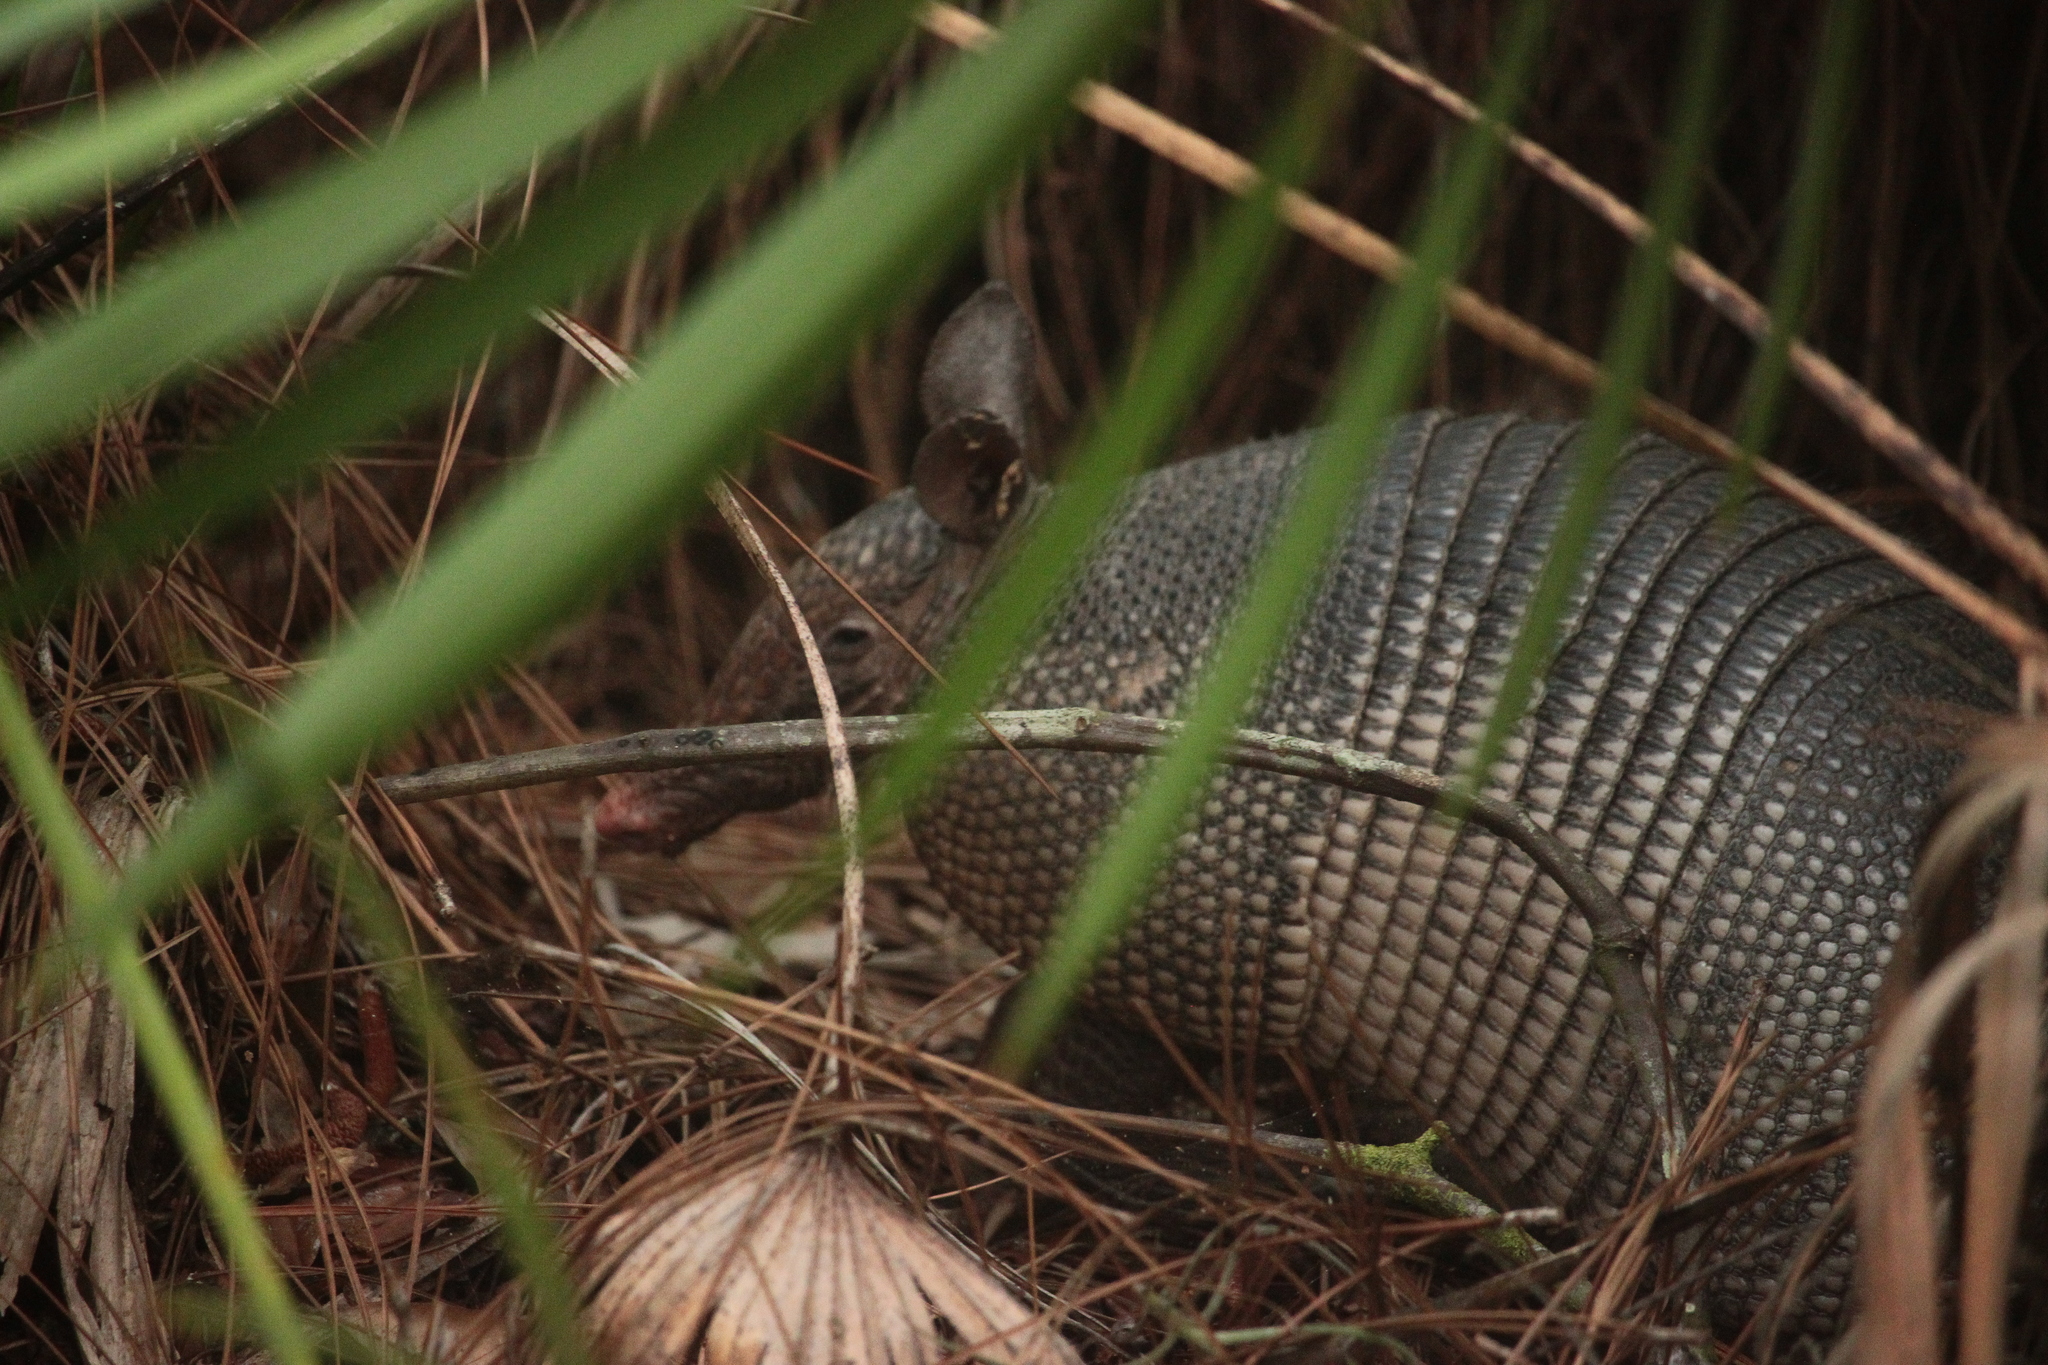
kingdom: Animalia
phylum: Chordata
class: Mammalia
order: Cingulata
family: Dasypodidae
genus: Dasypus
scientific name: Dasypus novemcinctus
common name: Nine-banded armadillo
